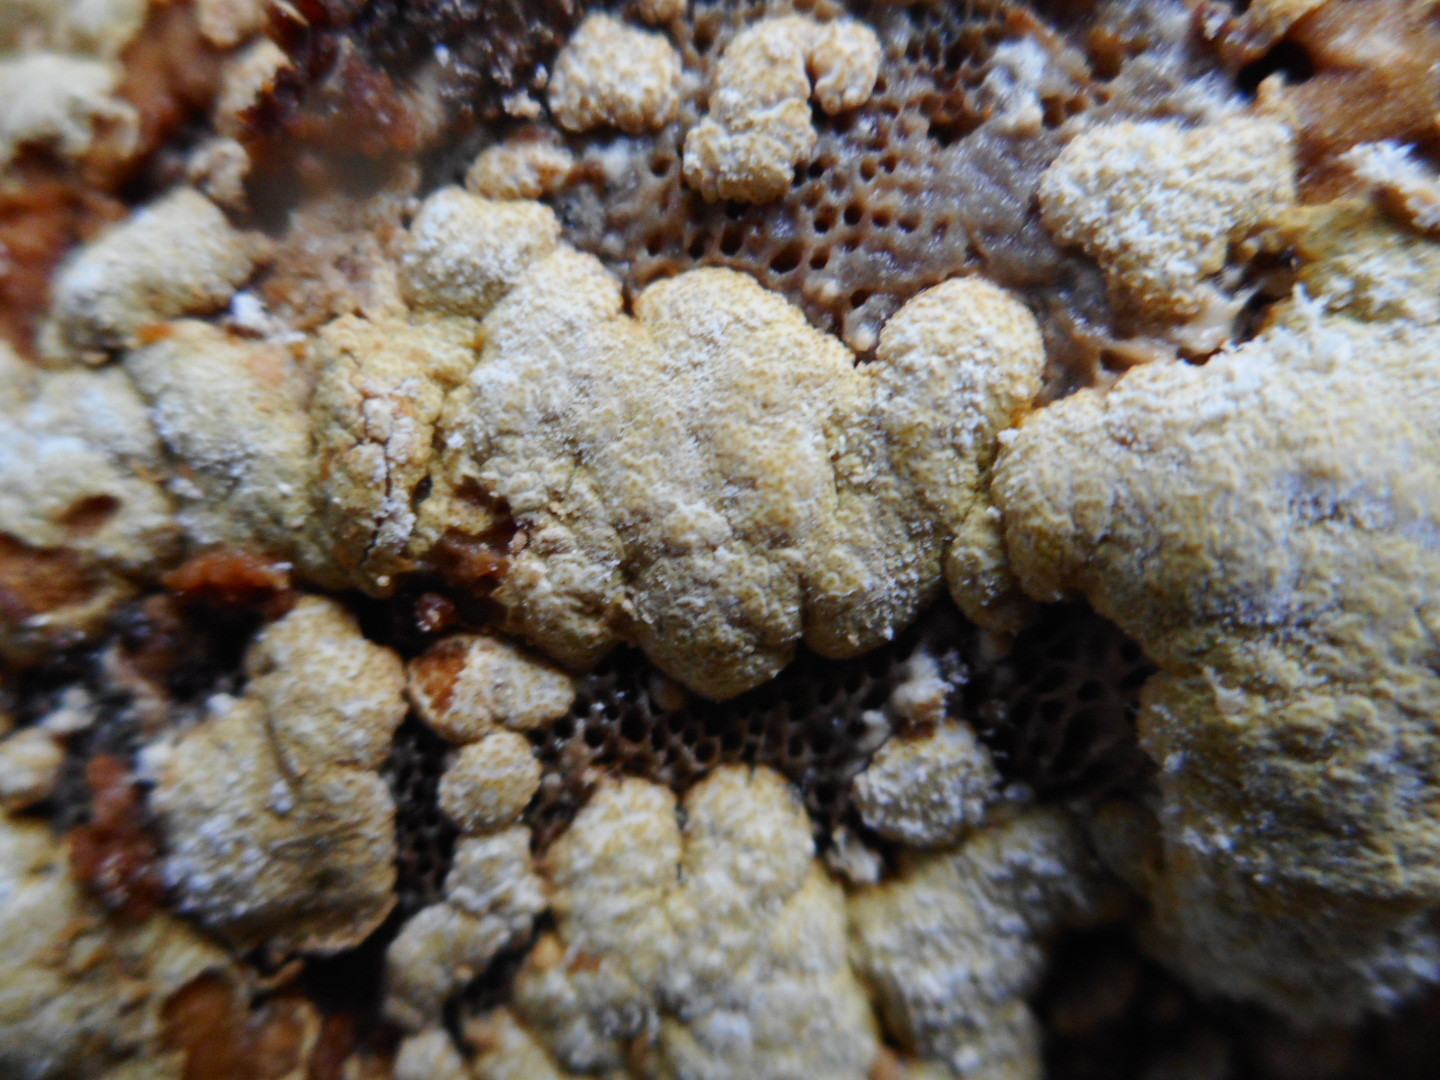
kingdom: Fungi
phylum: Ascomycota
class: Sordariomycetes
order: Hypocreales
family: Hypocreaceae
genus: Trichoderma
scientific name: Trichoderma pulvinatum
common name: Ochre cushion
